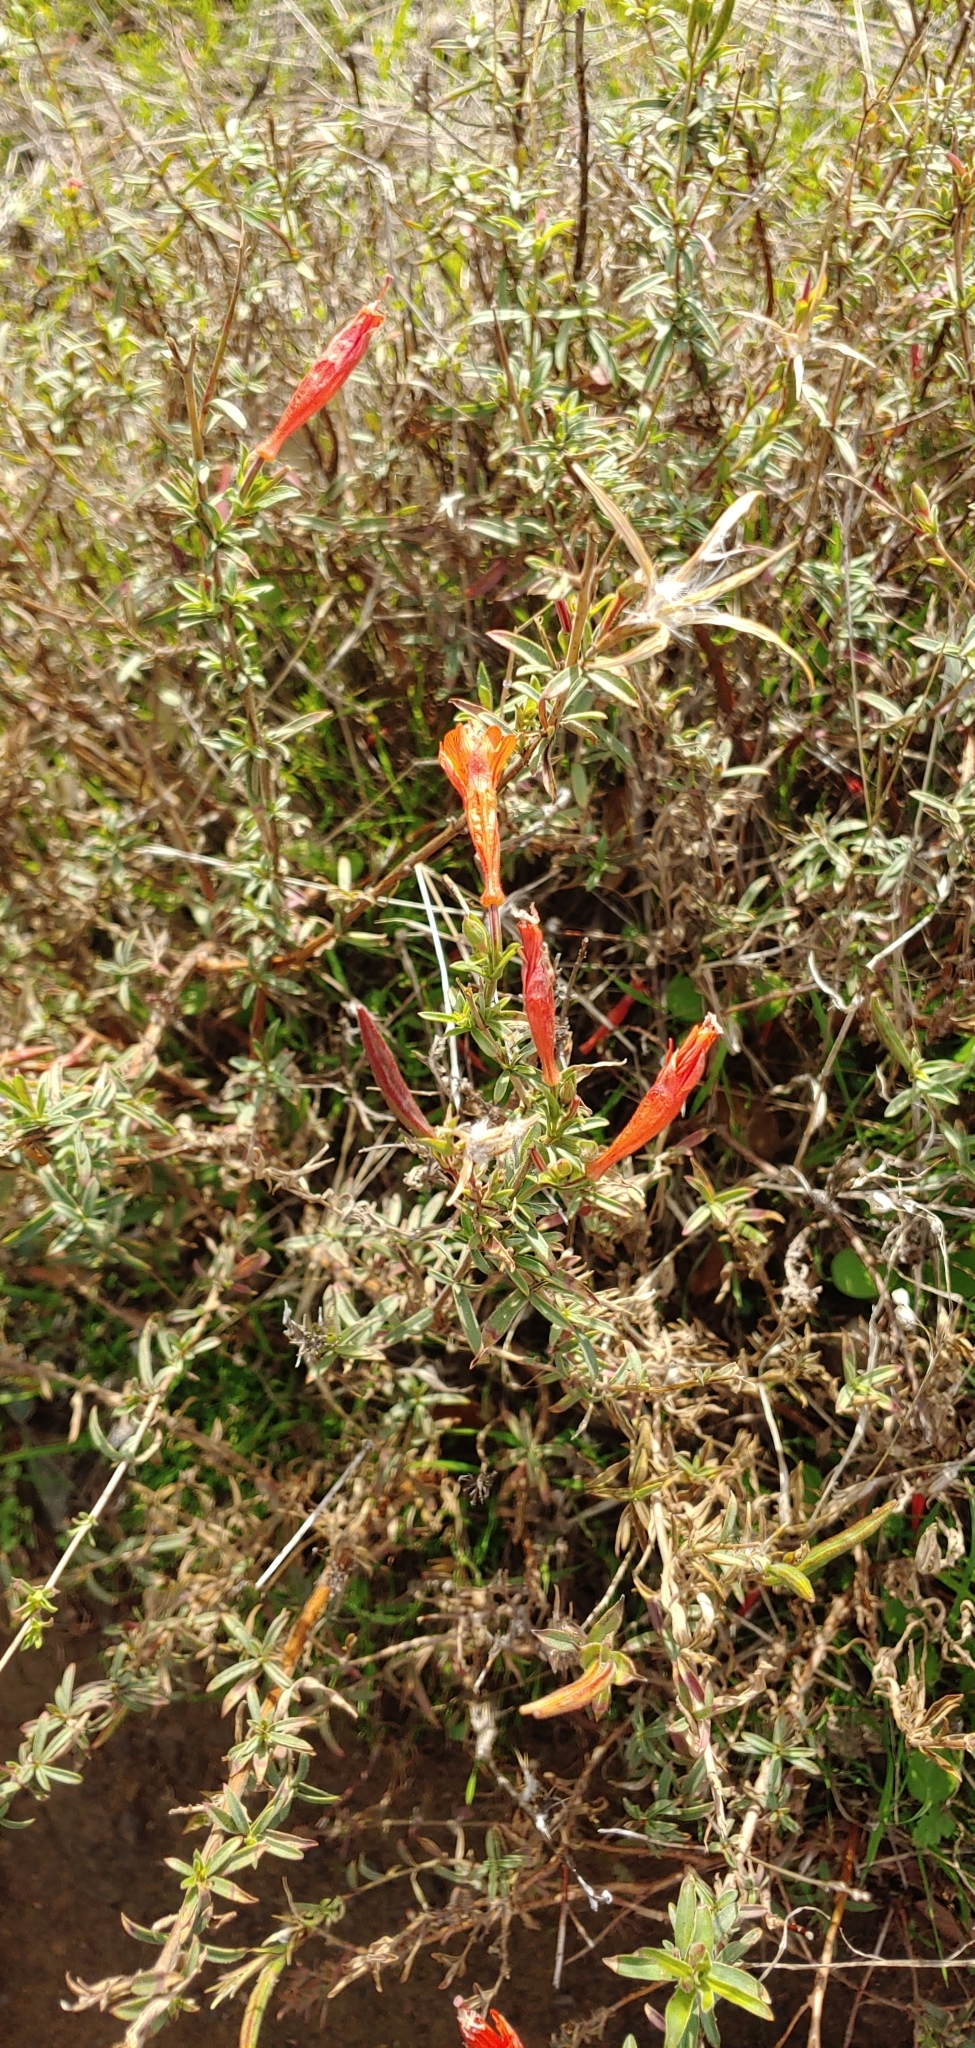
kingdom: Plantae
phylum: Tracheophyta
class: Magnoliopsida
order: Myrtales
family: Onagraceae
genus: Epilobium
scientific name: Epilobium canum
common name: California-fuchsia
